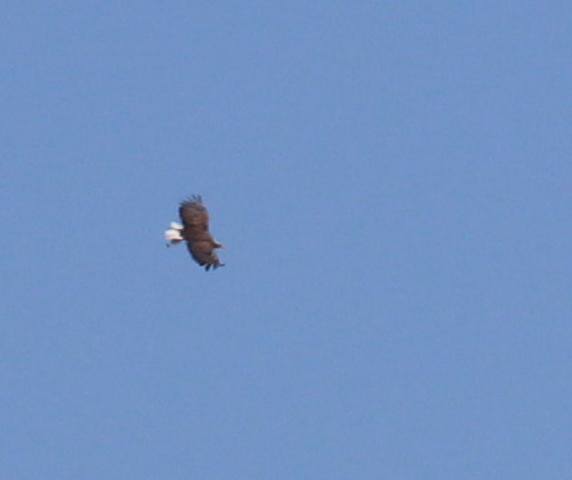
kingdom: Animalia
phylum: Chordata
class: Aves
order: Accipitriformes
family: Accipitridae
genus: Haliaeetus
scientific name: Haliaeetus albicilla
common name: White-tailed eagle
